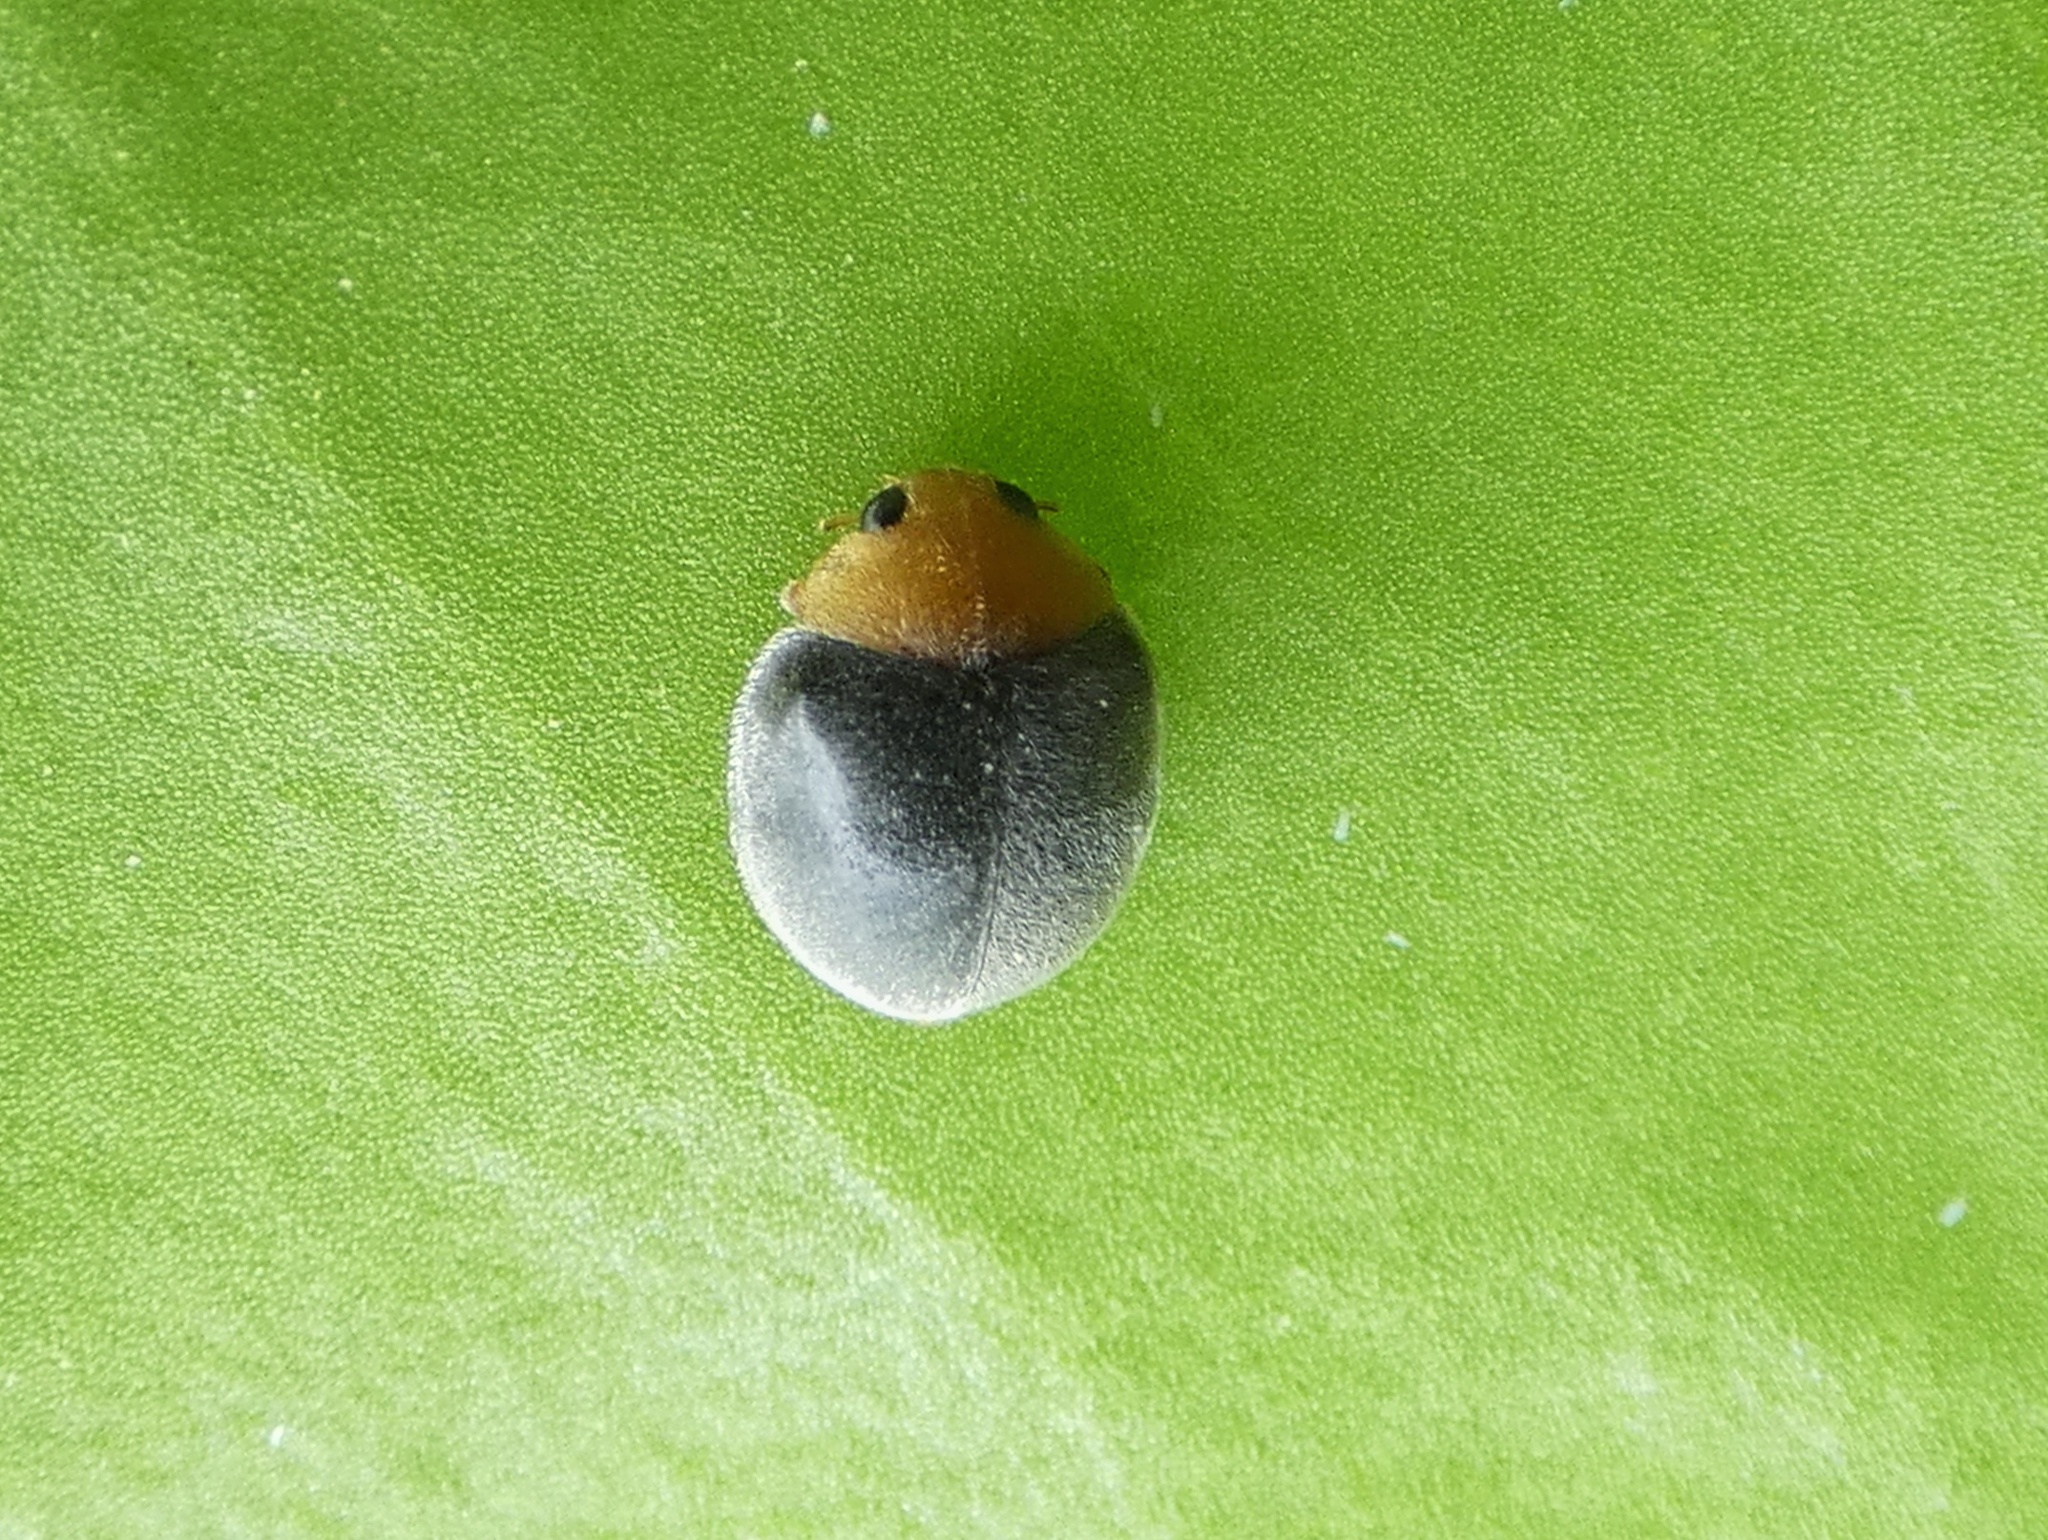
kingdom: Animalia
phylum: Arthropoda
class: Insecta
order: Coleoptera
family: Coccinellidae
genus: Cryptolaemus
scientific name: Cryptolaemus montrouzieri
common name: Mealybug destroyer
